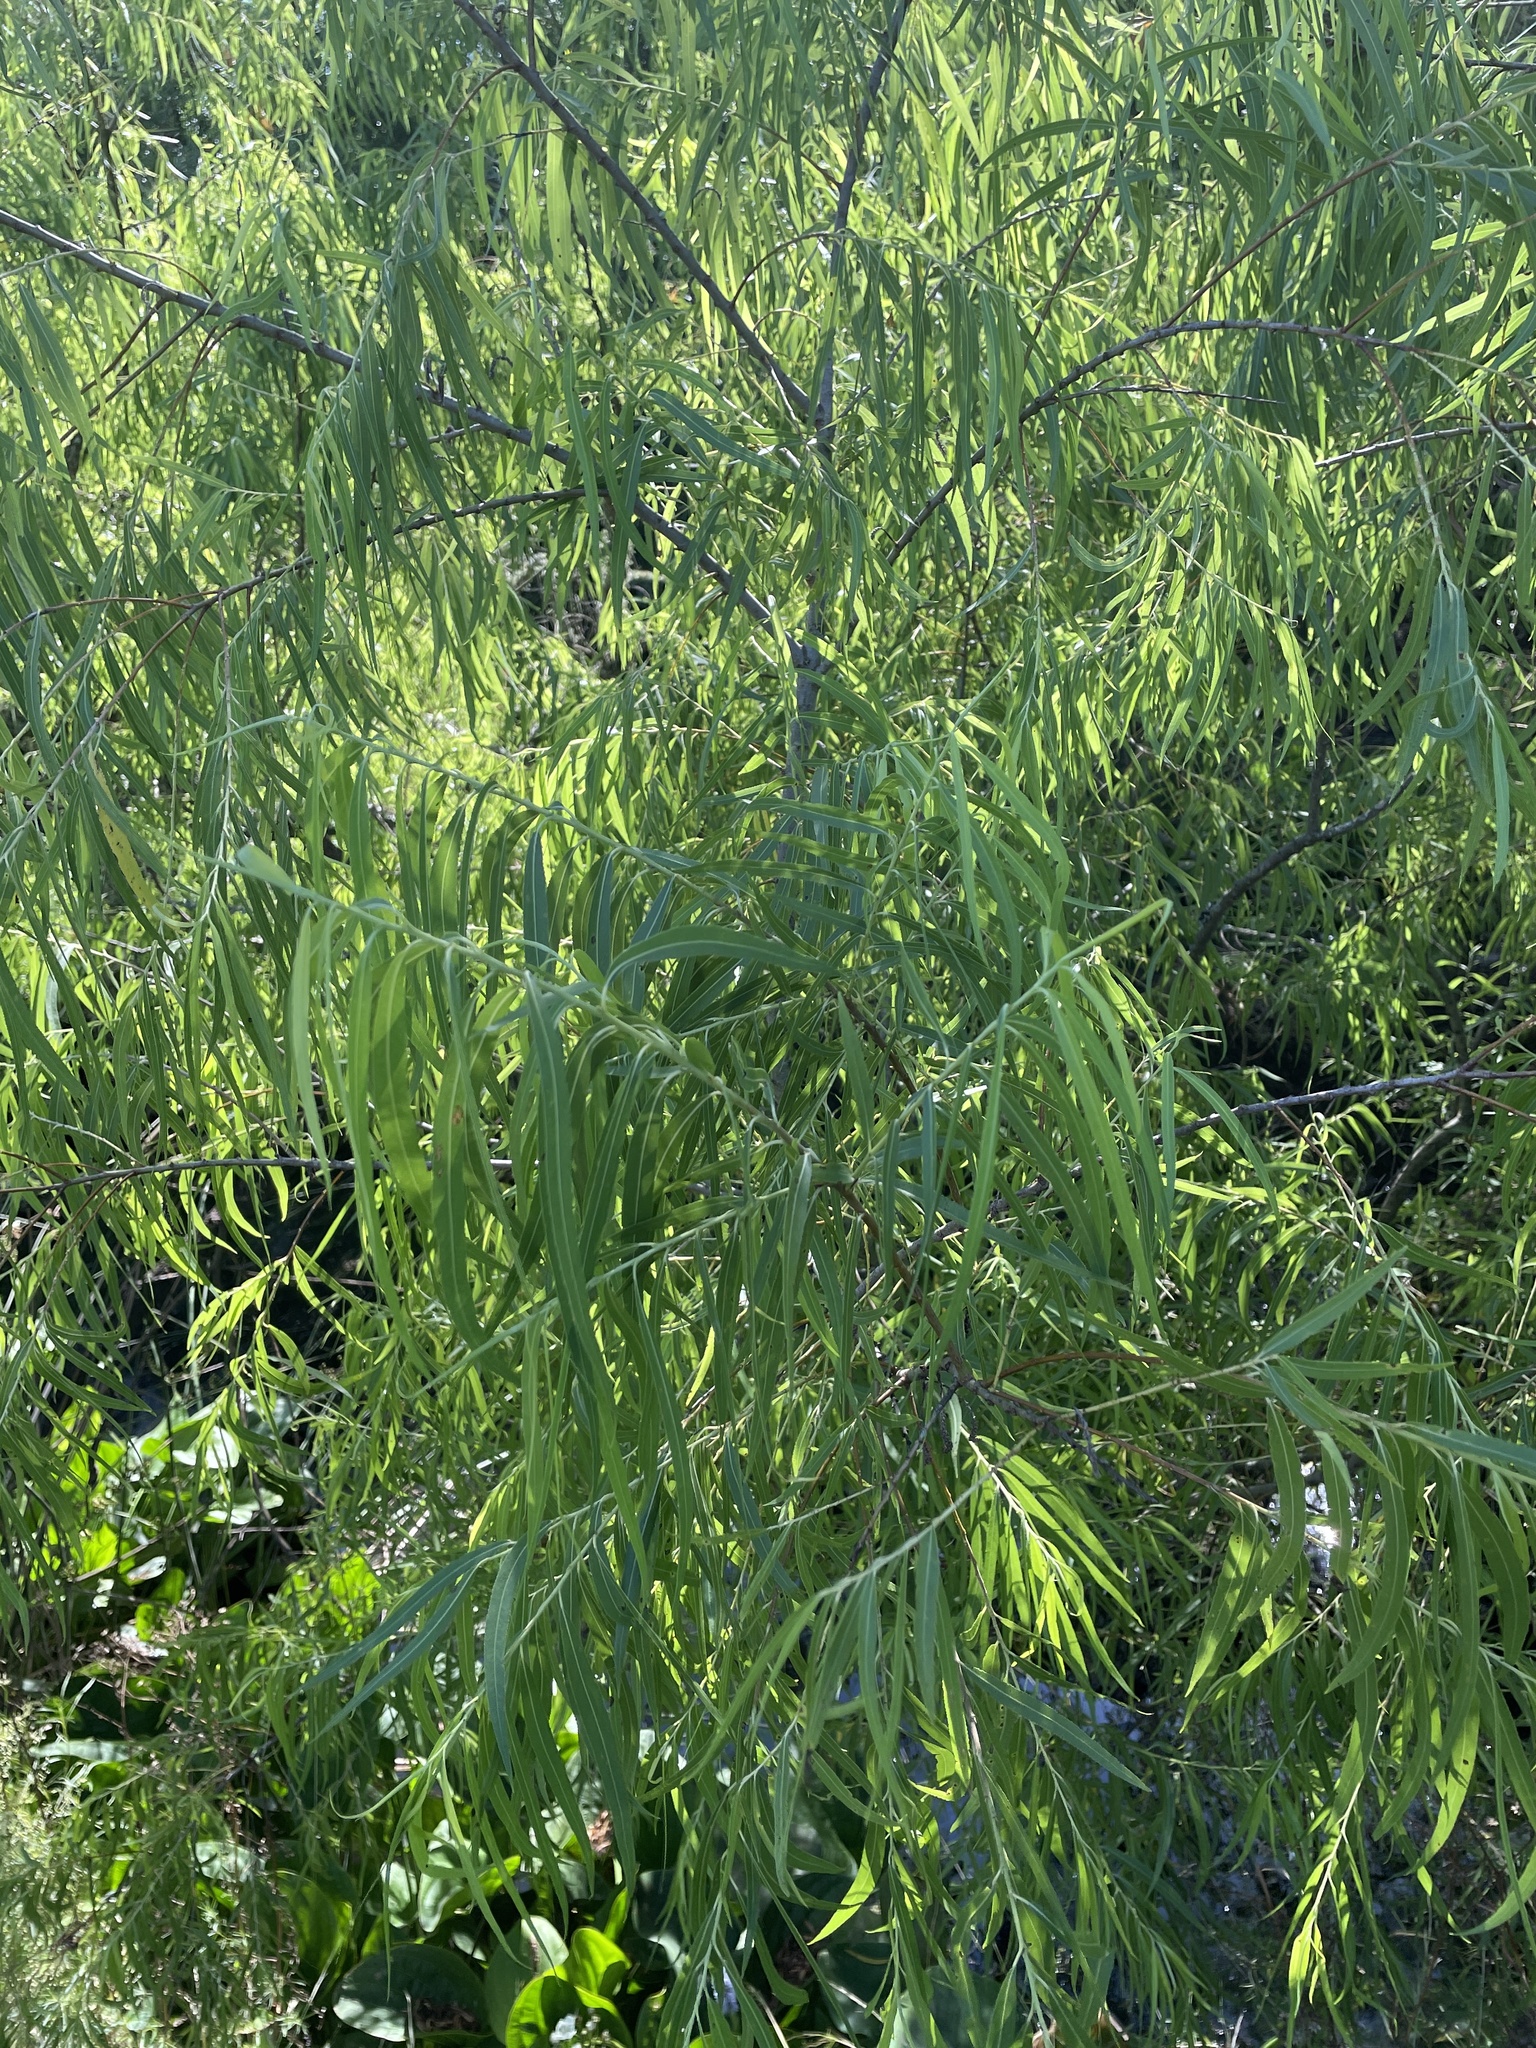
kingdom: Plantae
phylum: Tracheophyta
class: Magnoliopsida
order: Malpighiales
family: Salicaceae
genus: Salix
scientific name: Salix humboldtiana
